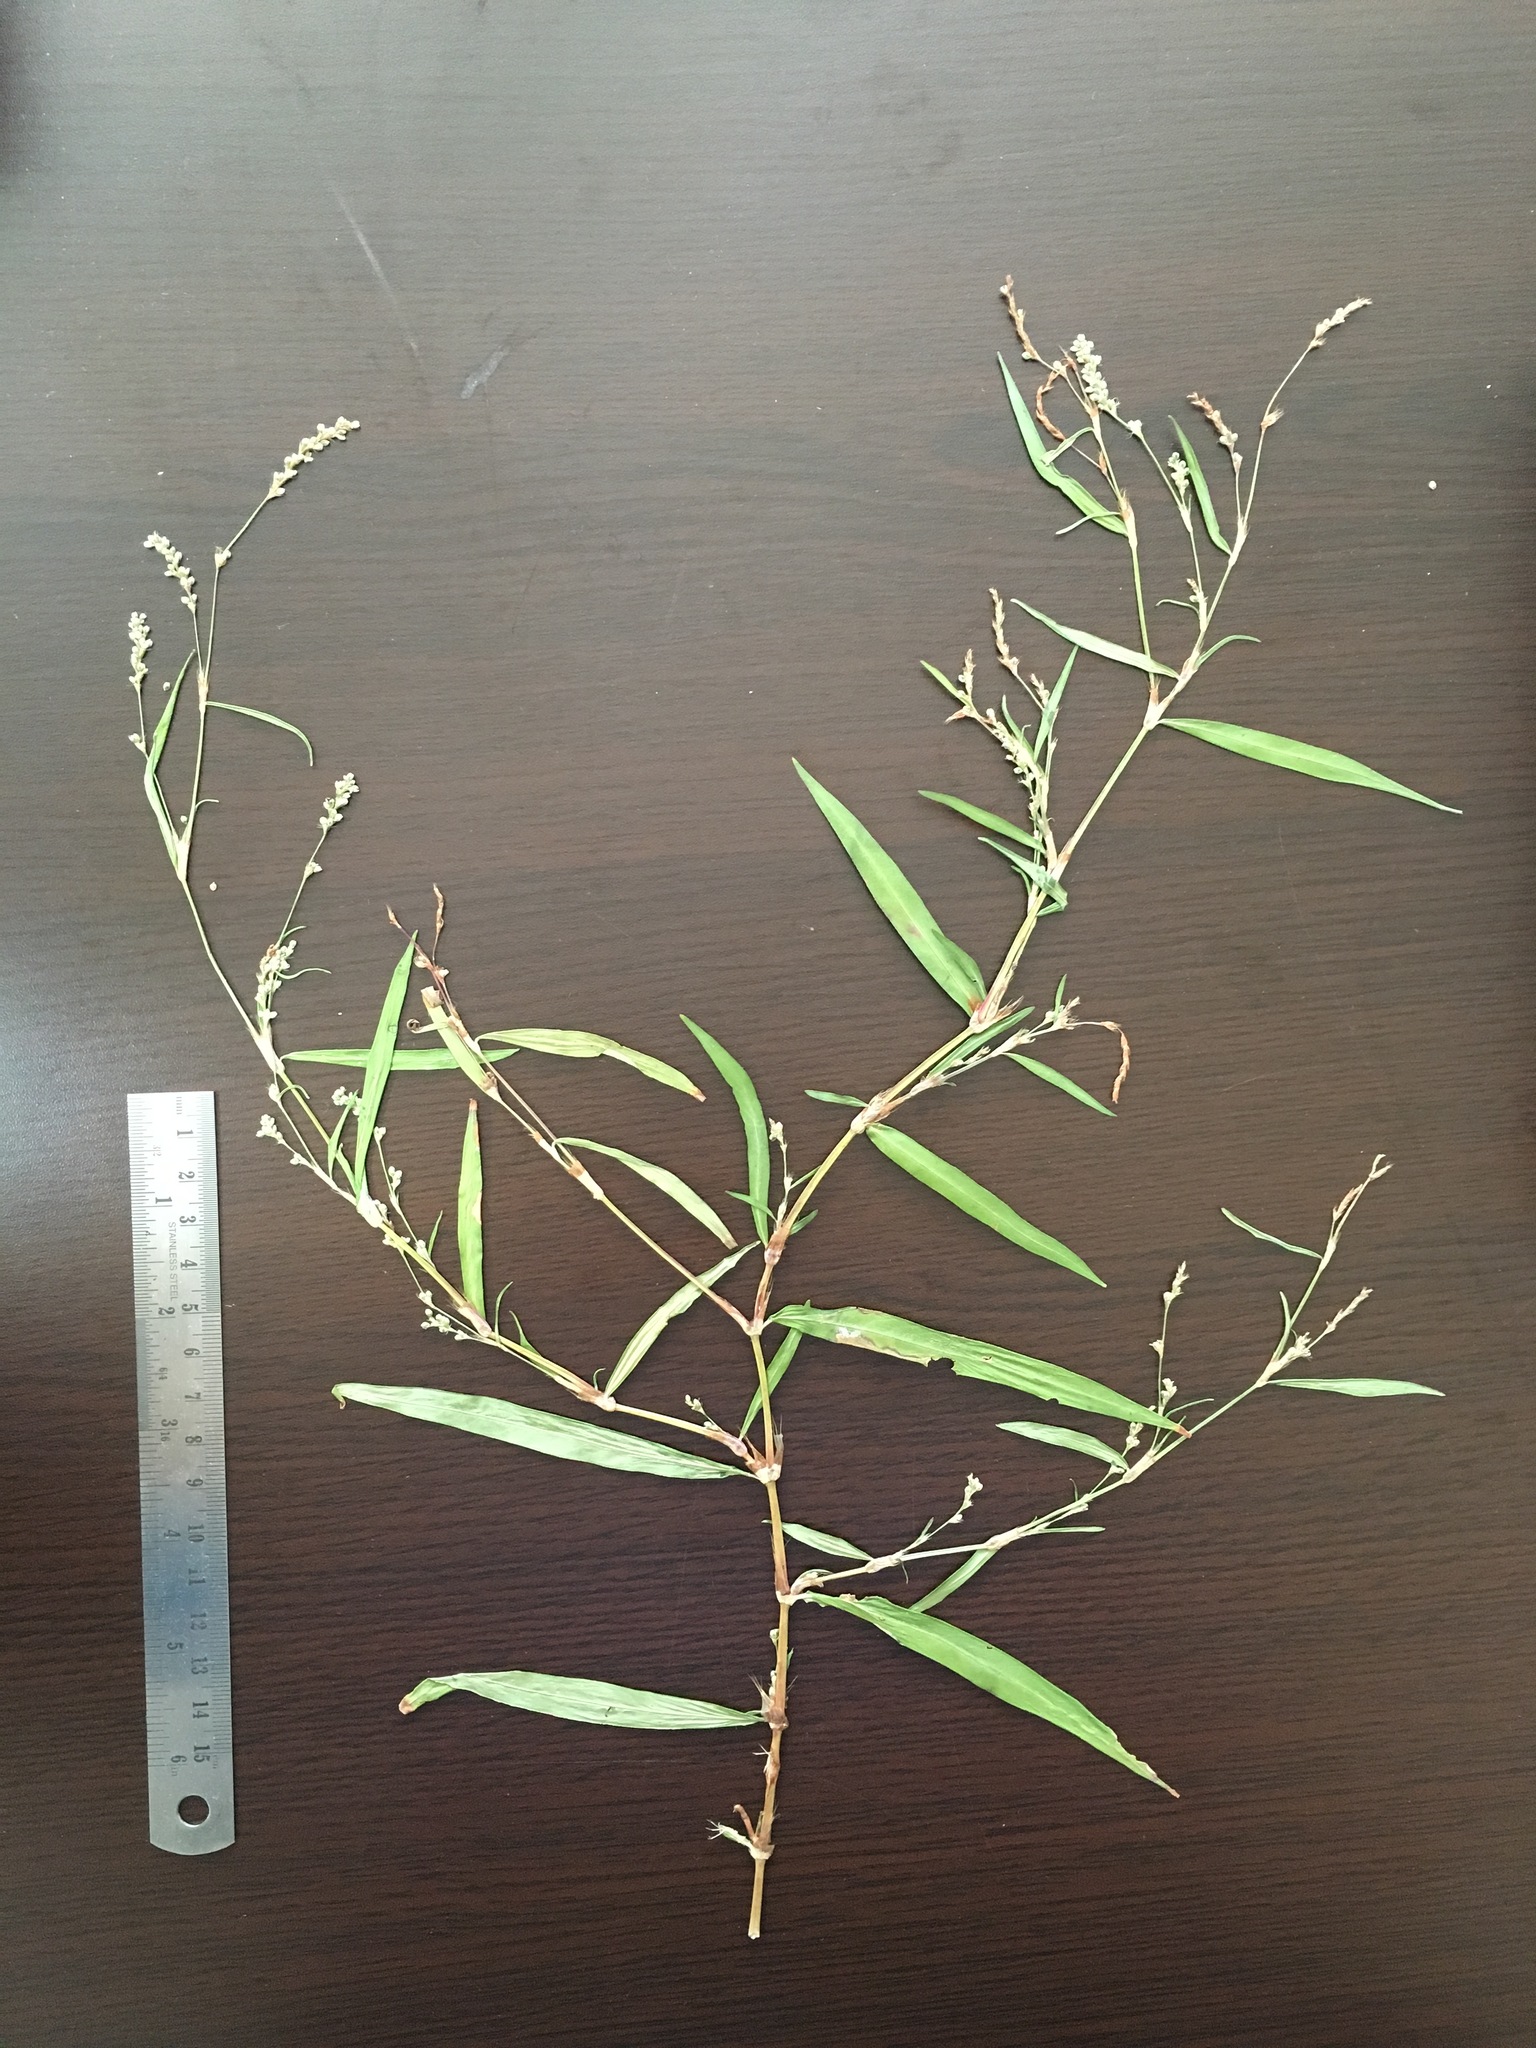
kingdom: Plantae
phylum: Tracheophyta
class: Magnoliopsida
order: Caryophyllales
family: Polygonaceae
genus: Persicaria
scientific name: Persicaria minor
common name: Small water-pepper
